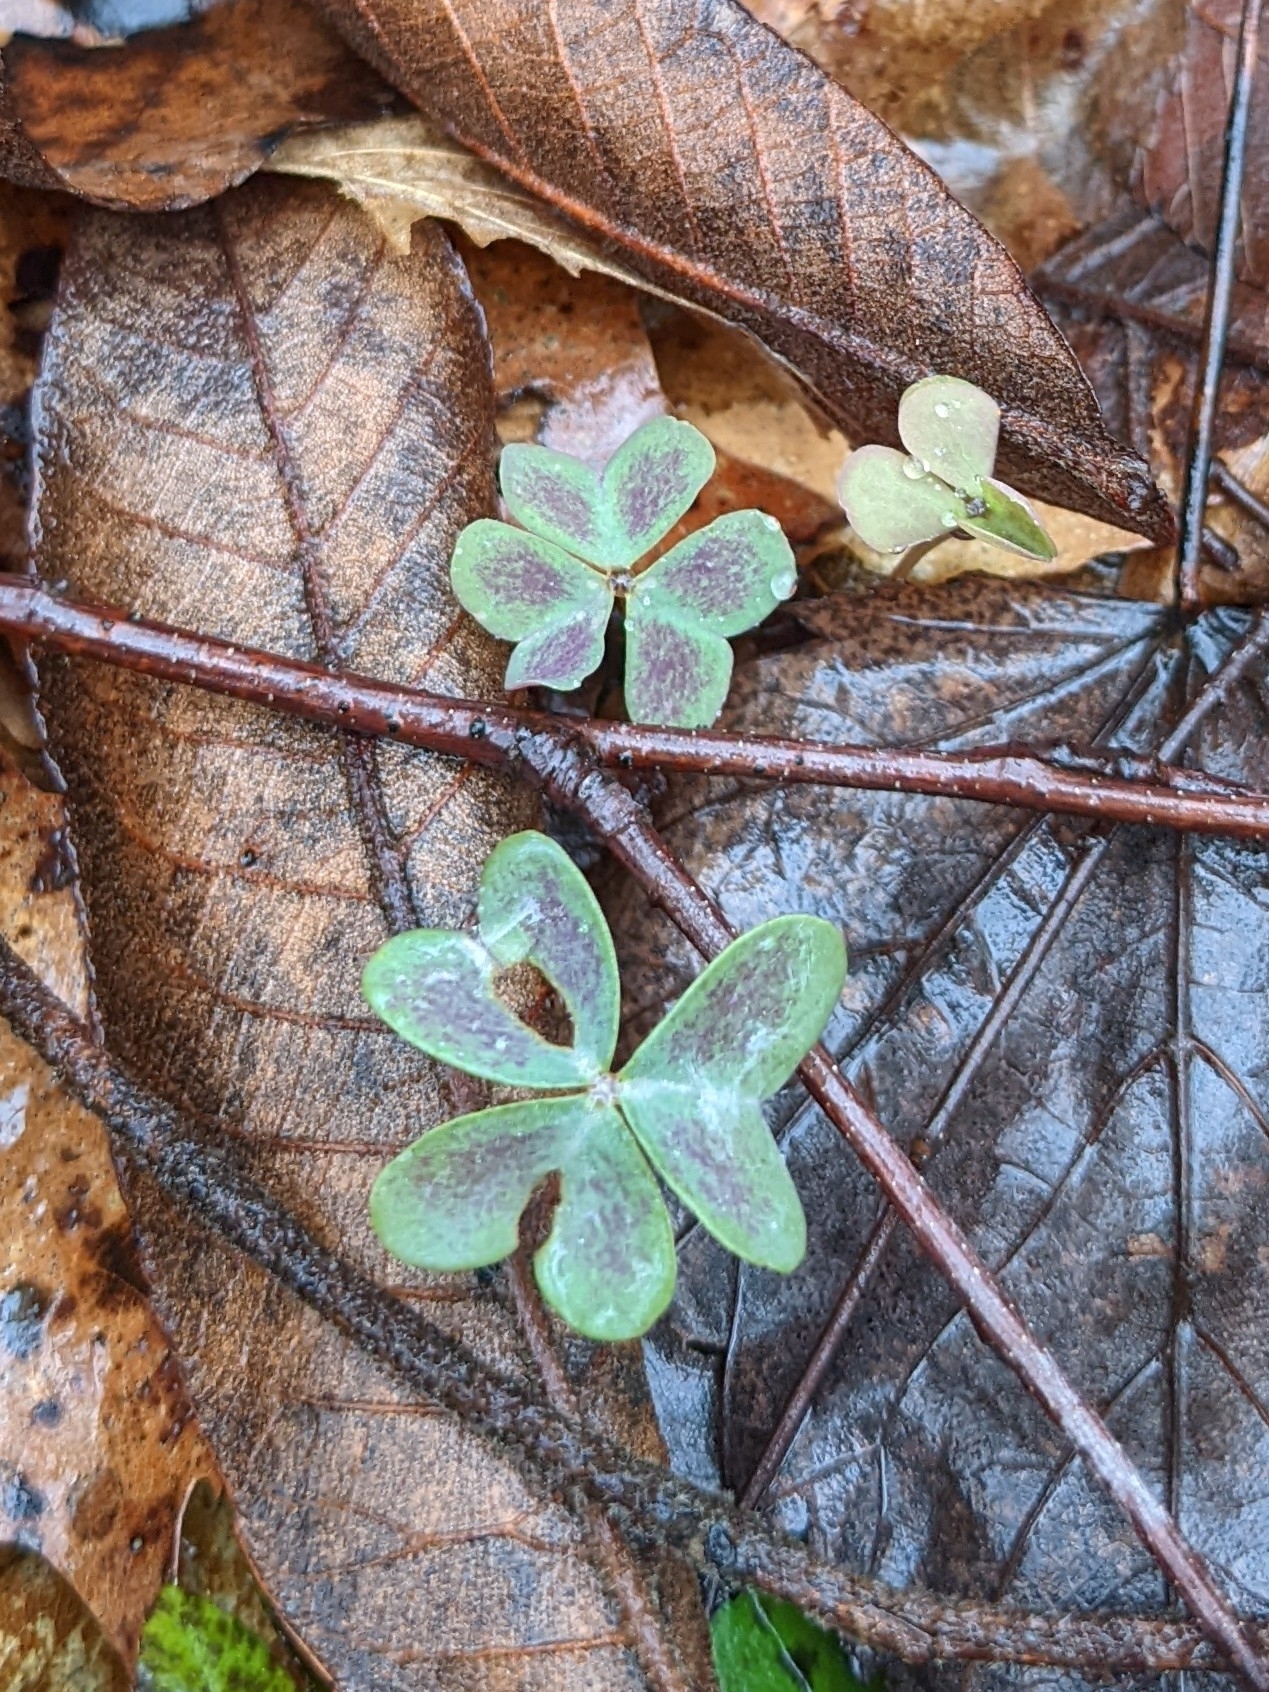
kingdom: Plantae
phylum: Tracheophyta
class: Magnoliopsida
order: Oxalidales
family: Oxalidaceae
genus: Oxalis
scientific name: Oxalis violacea
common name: Violet wood-sorrel
